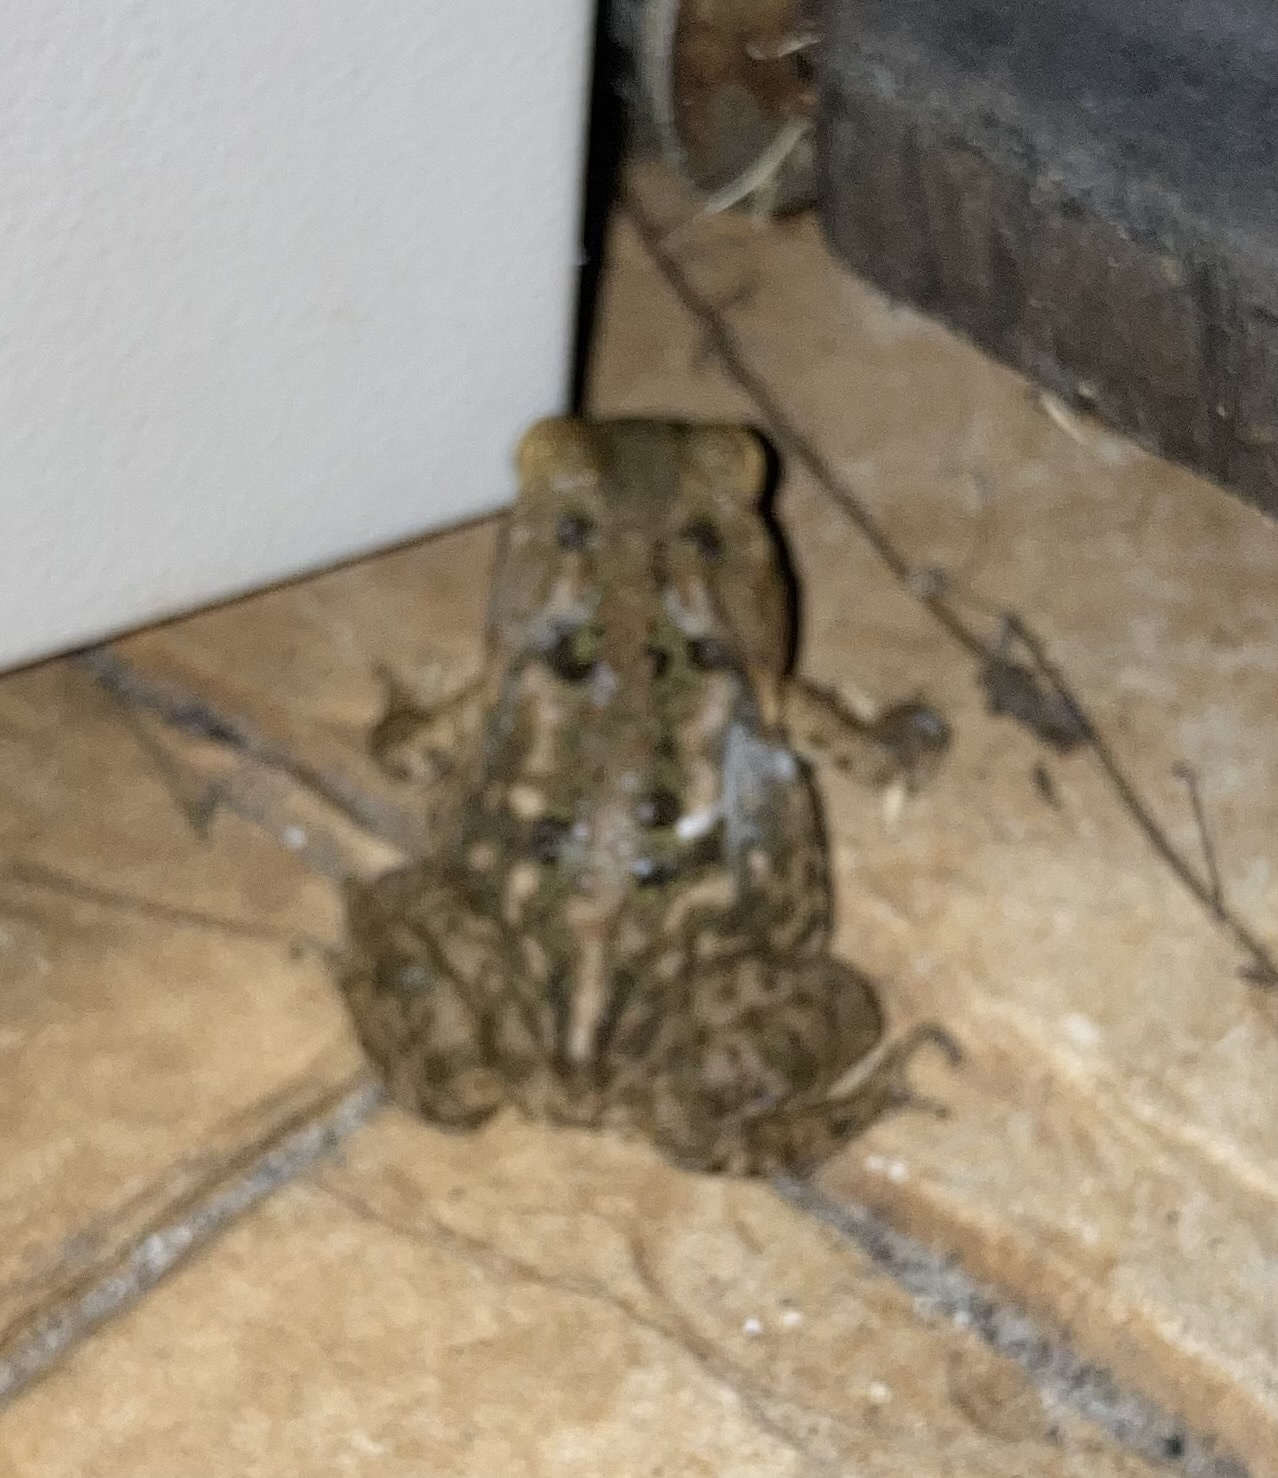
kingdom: Animalia
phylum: Chordata
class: Amphibia
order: Anura
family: Bufonidae
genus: Rhinella
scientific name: Rhinella marina
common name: Cane toad
